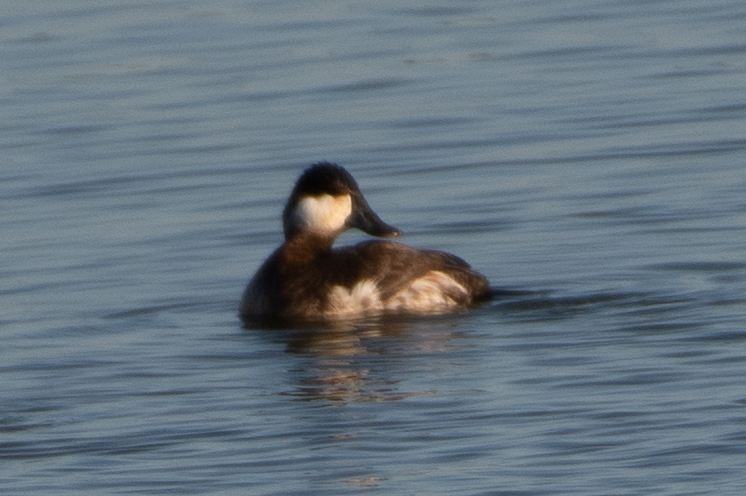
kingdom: Animalia
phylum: Chordata
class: Aves
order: Anseriformes
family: Anatidae
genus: Oxyura
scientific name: Oxyura jamaicensis
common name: Ruddy duck
